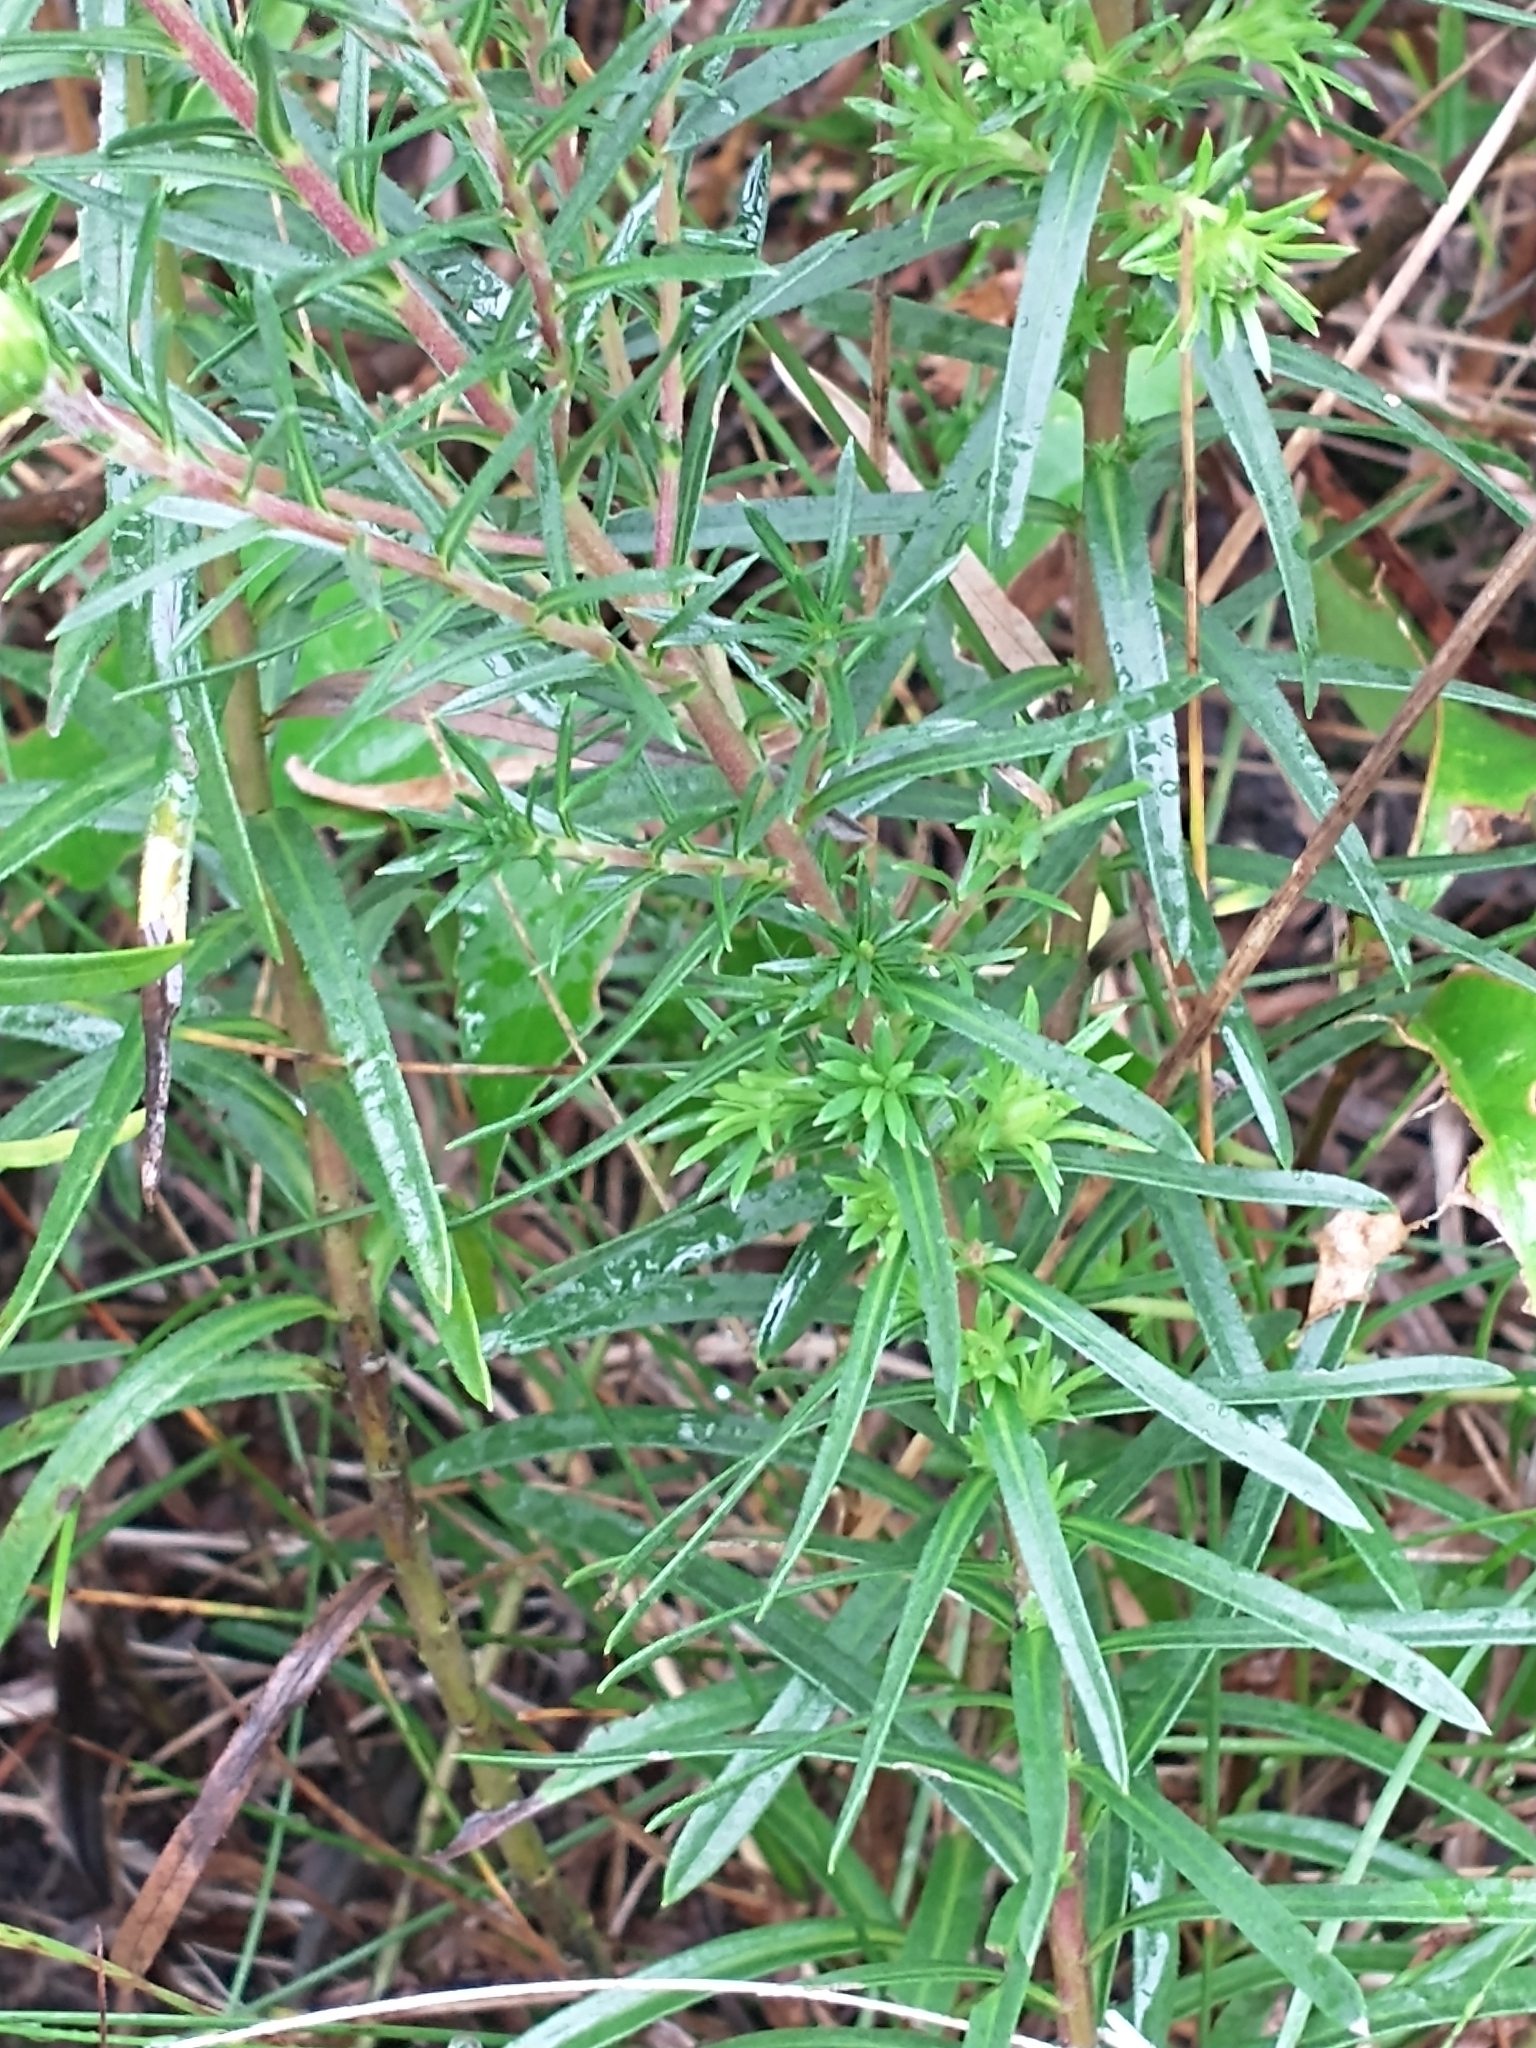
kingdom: Plantae
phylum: Tracheophyta
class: Magnoliopsida
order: Asterales
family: Asteraceae
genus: Ionactis
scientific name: Ionactis linariifolia
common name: Flax-leaf aster
